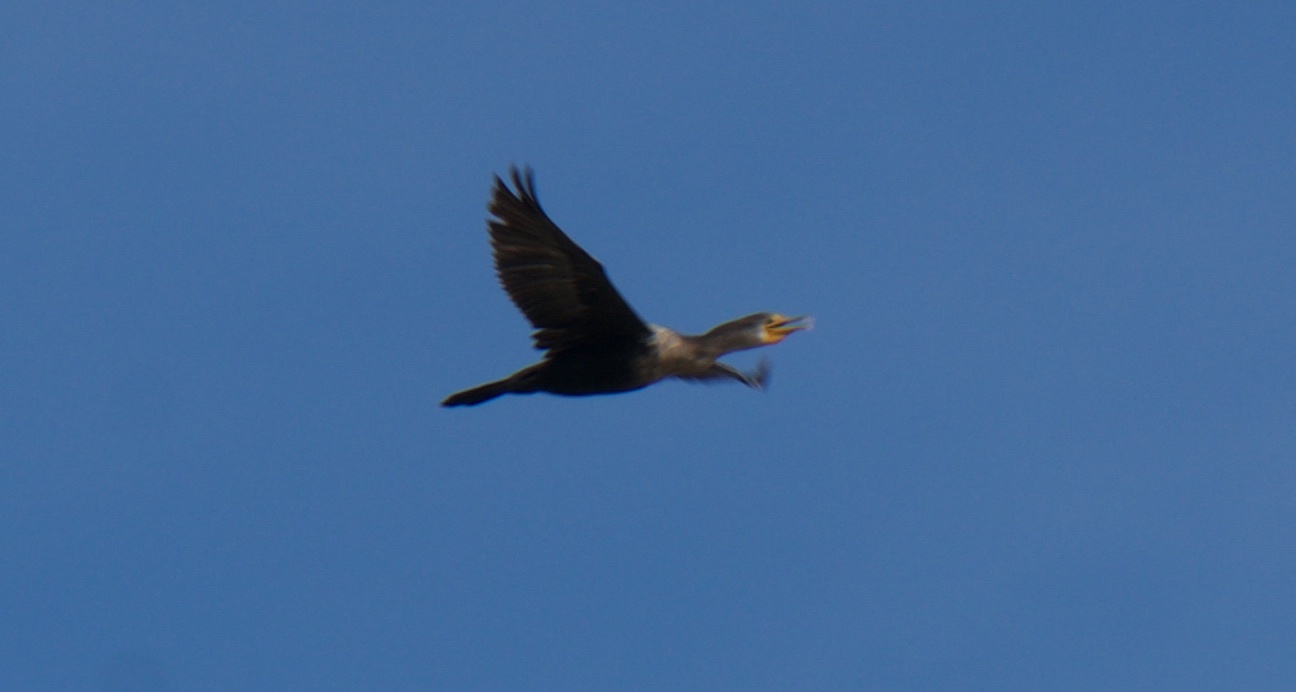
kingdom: Animalia
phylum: Chordata
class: Aves
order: Suliformes
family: Phalacrocoracidae
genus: Phalacrocorax
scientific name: Phalacrocorax auritus
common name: Double-crested cormorant
